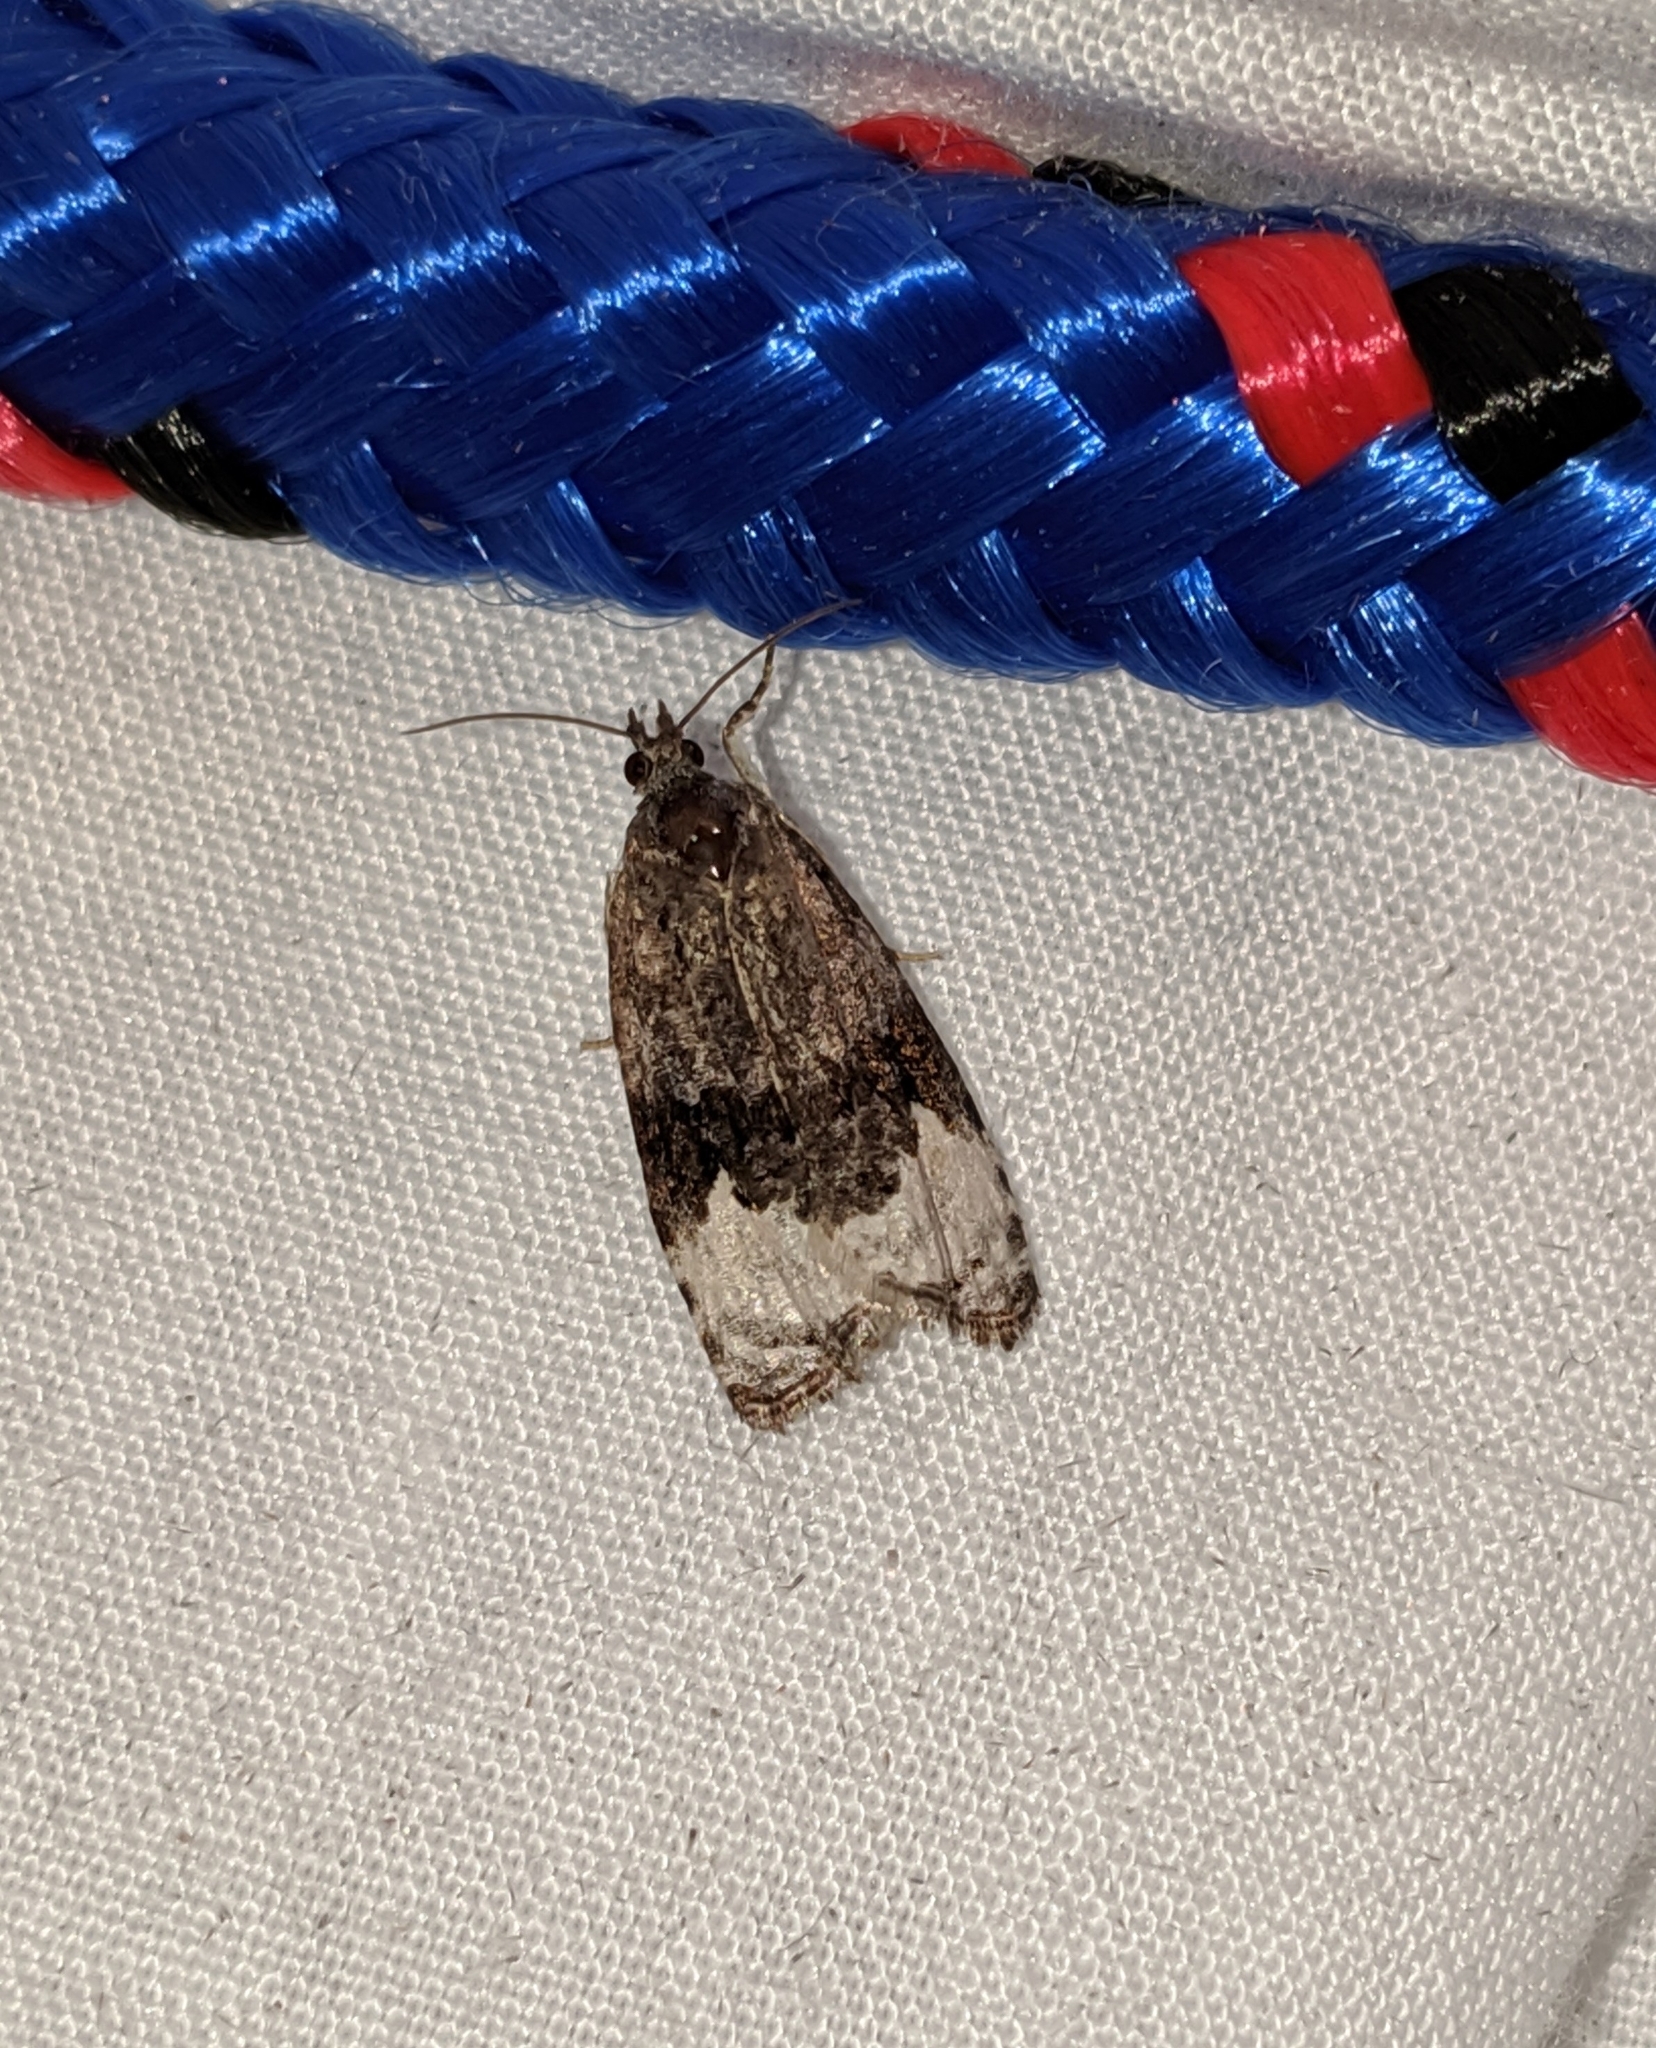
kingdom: Animalia
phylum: Arthropoda
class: Insecta
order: Lepidoptera
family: Tortricidae
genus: Apotomis
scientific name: Apotomis capreana
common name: Sallow marble
